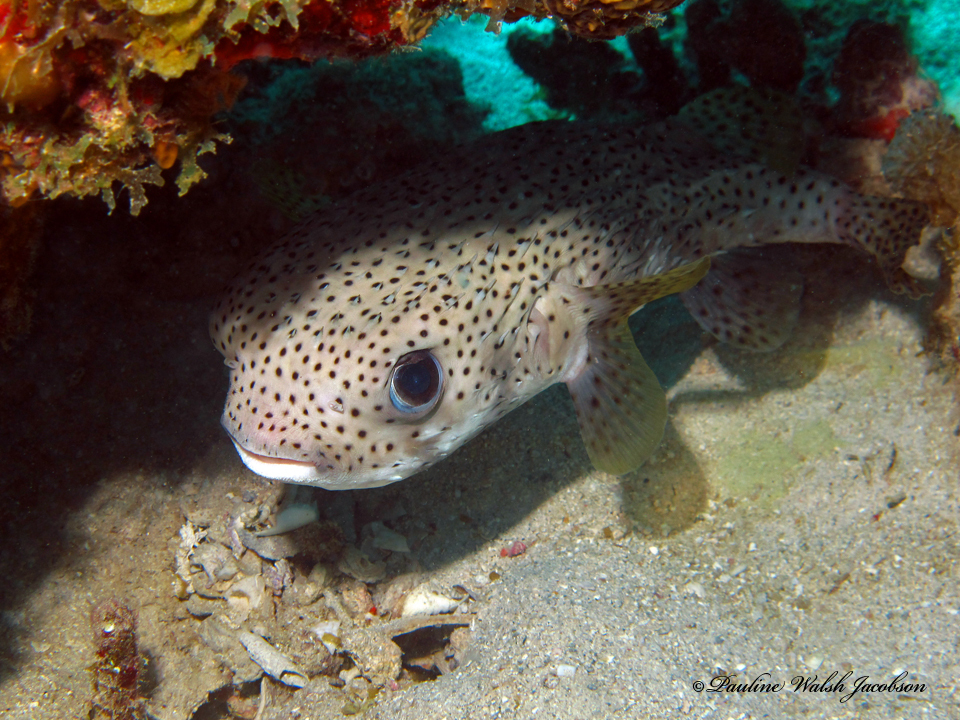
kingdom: Animalia
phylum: Chordata
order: Tetraodontiformes
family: Diodontidae
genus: Diodon
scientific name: Diodon hystrix
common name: Giant porcupinefish
